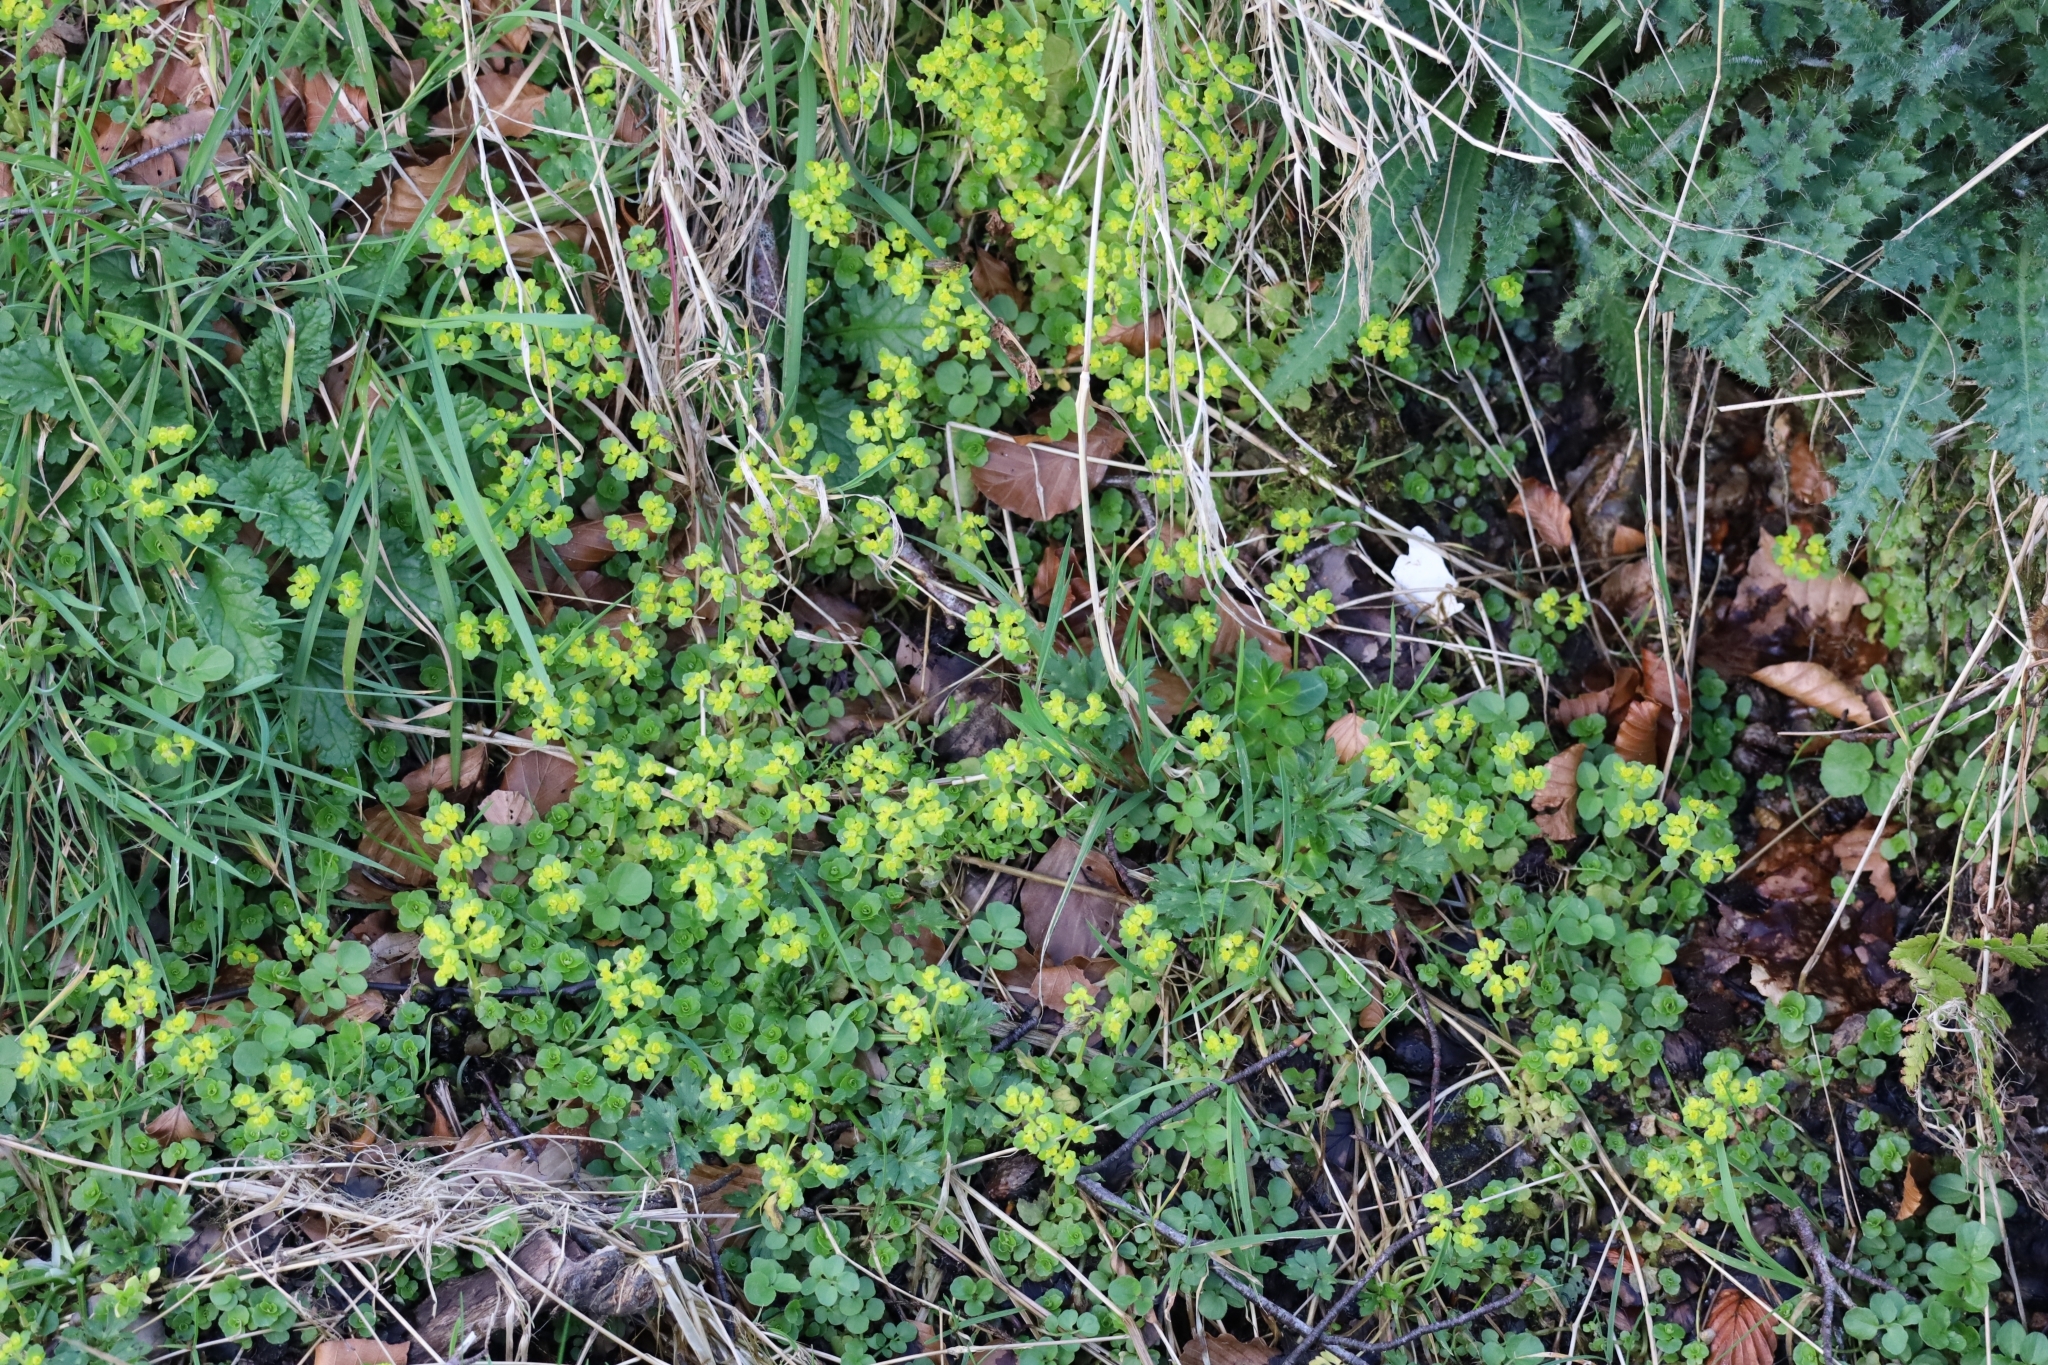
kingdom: Plantae
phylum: Tracheophyta
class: Magnoliopsida
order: Saxifragales
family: Saxifragaceae
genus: Chrysosplenium
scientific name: Chrysosplenium oppositifolium
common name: Opposite-leaved golden-saxifrage
